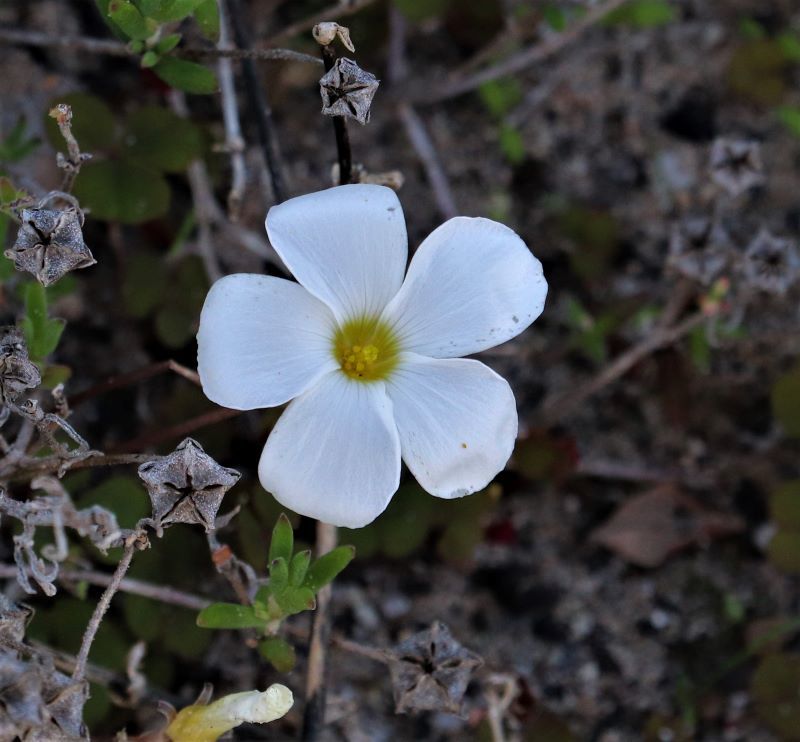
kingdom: Plantae
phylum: Tracheophyta
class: Magnoliopsida
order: Oxalidales
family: Oxalidaceae
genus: Oxalis
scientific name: Oxalis depressa
